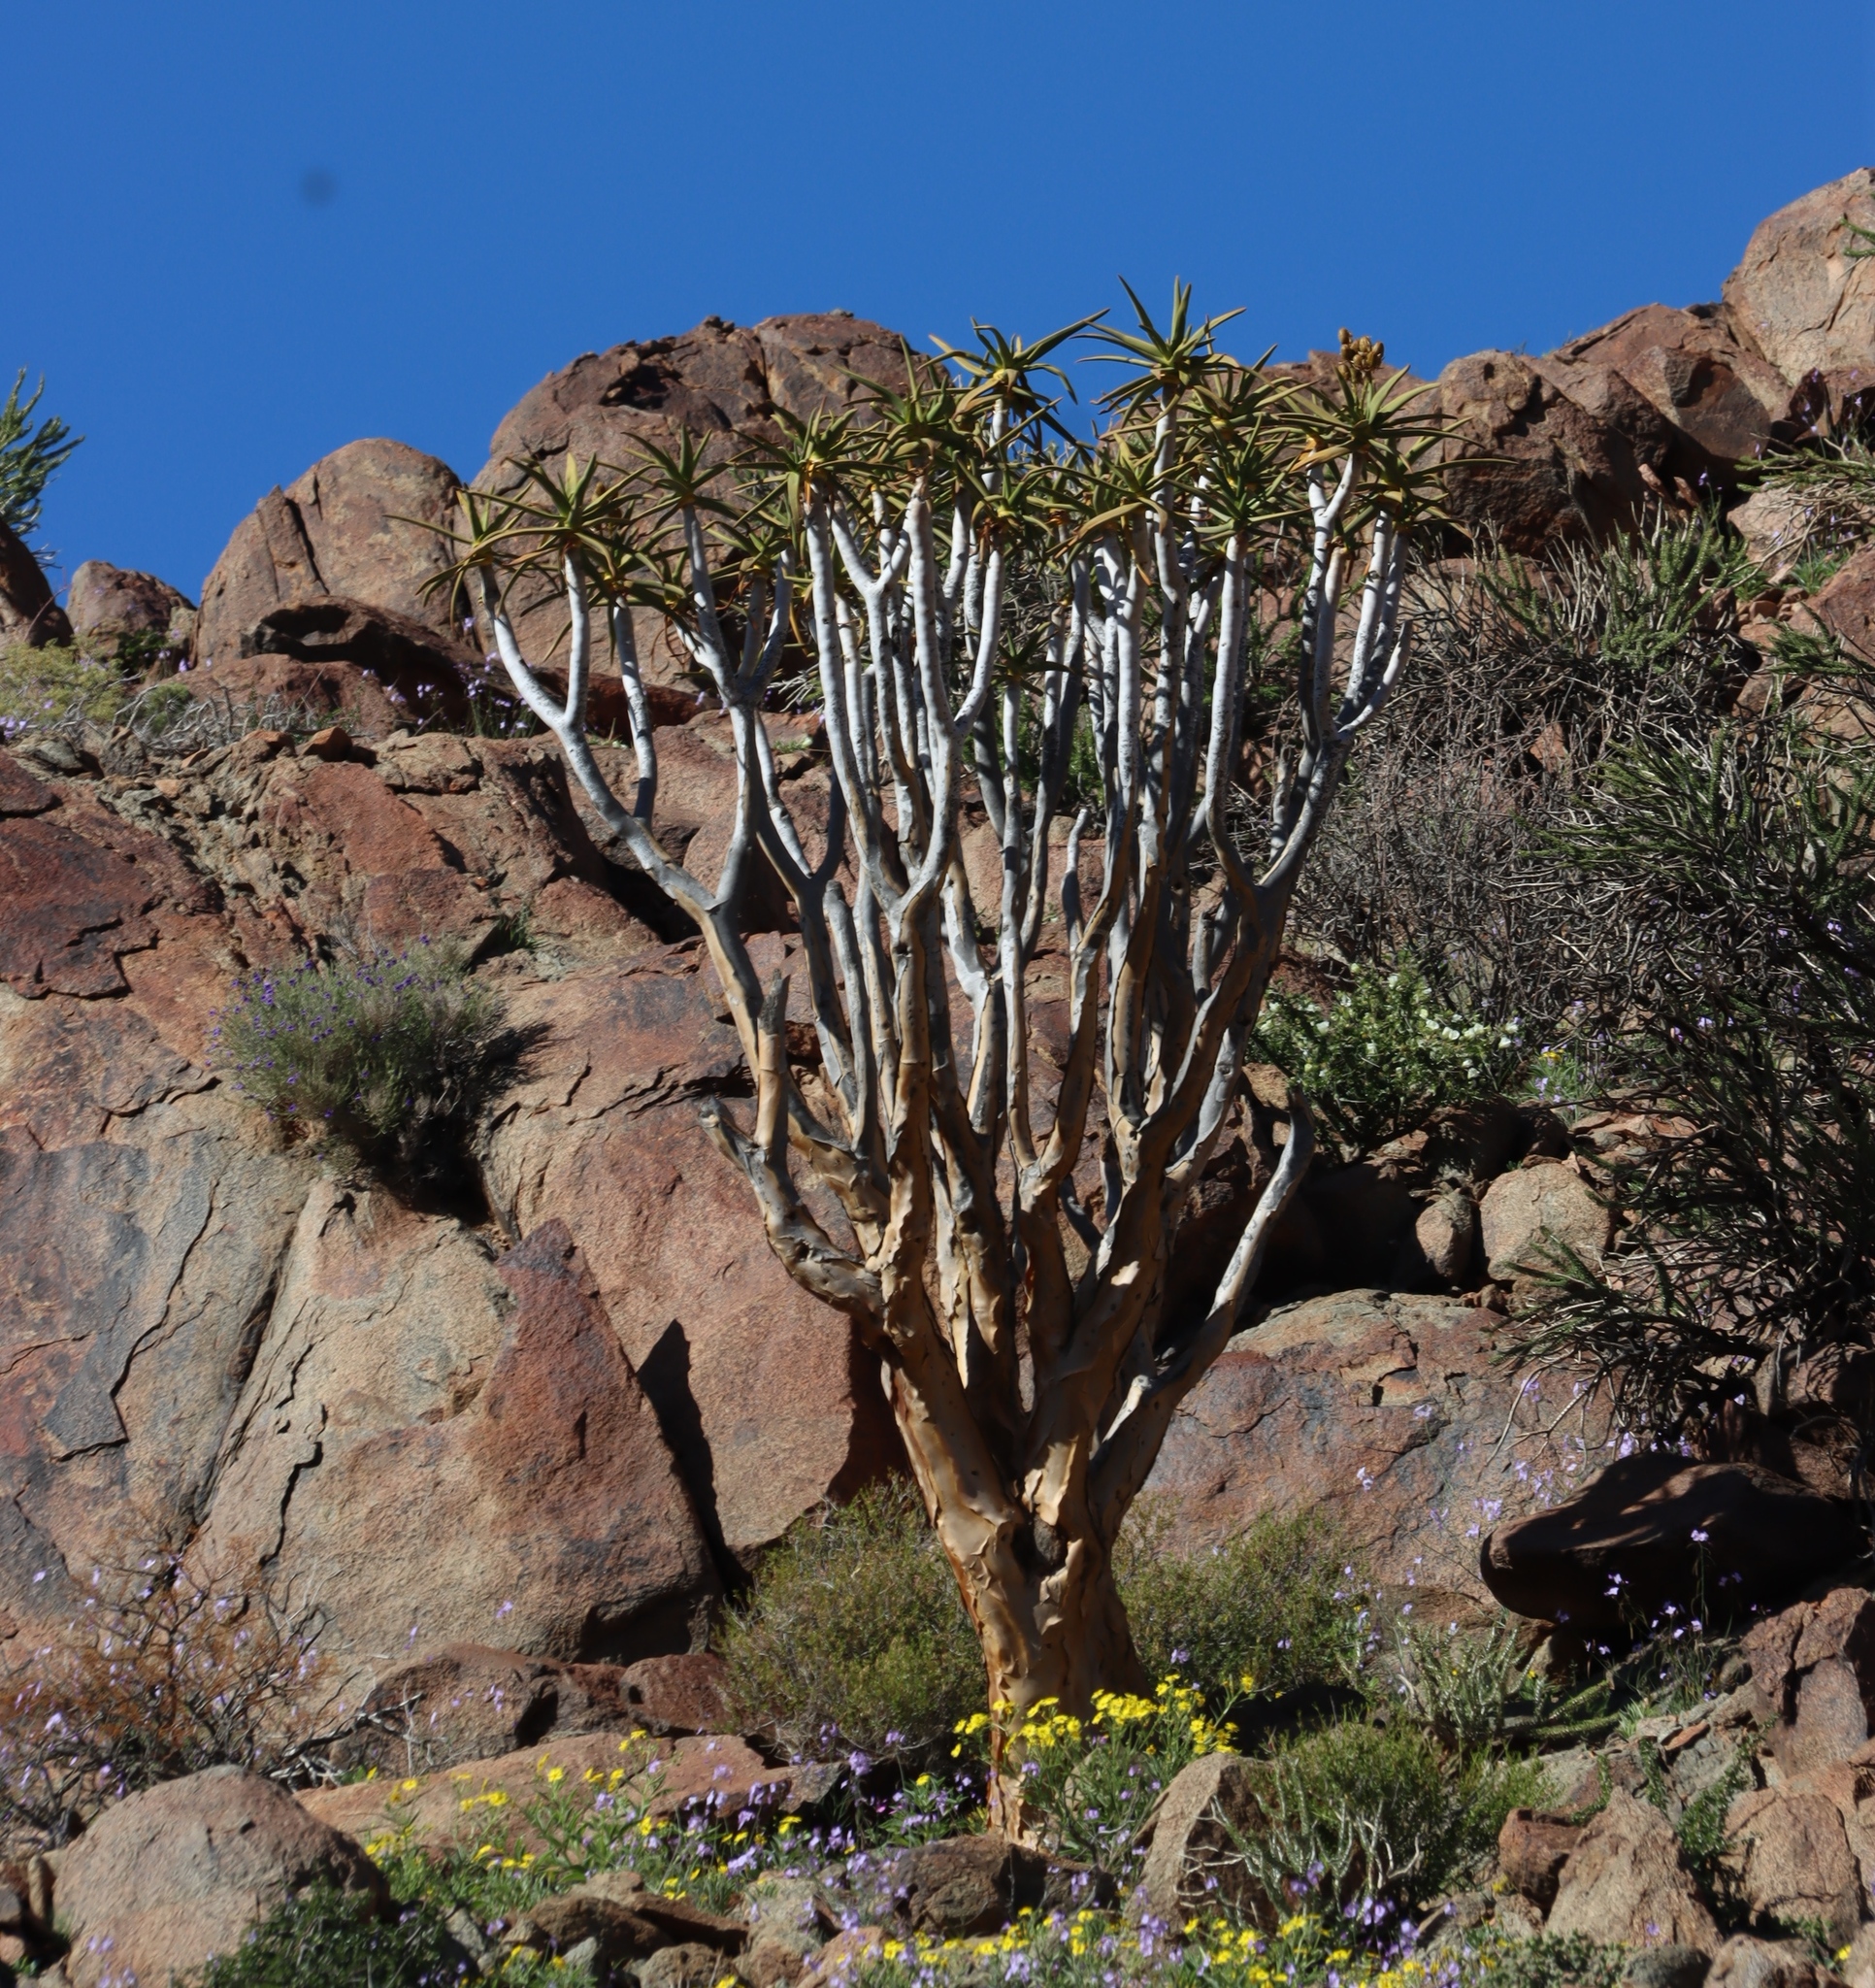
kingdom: Plantae
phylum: Tracheophyta
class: Liliopsida
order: Asparagales
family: Asphodelaceae
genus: Aloidendron
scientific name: Aloidendron dichotomum
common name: Quiver tree
